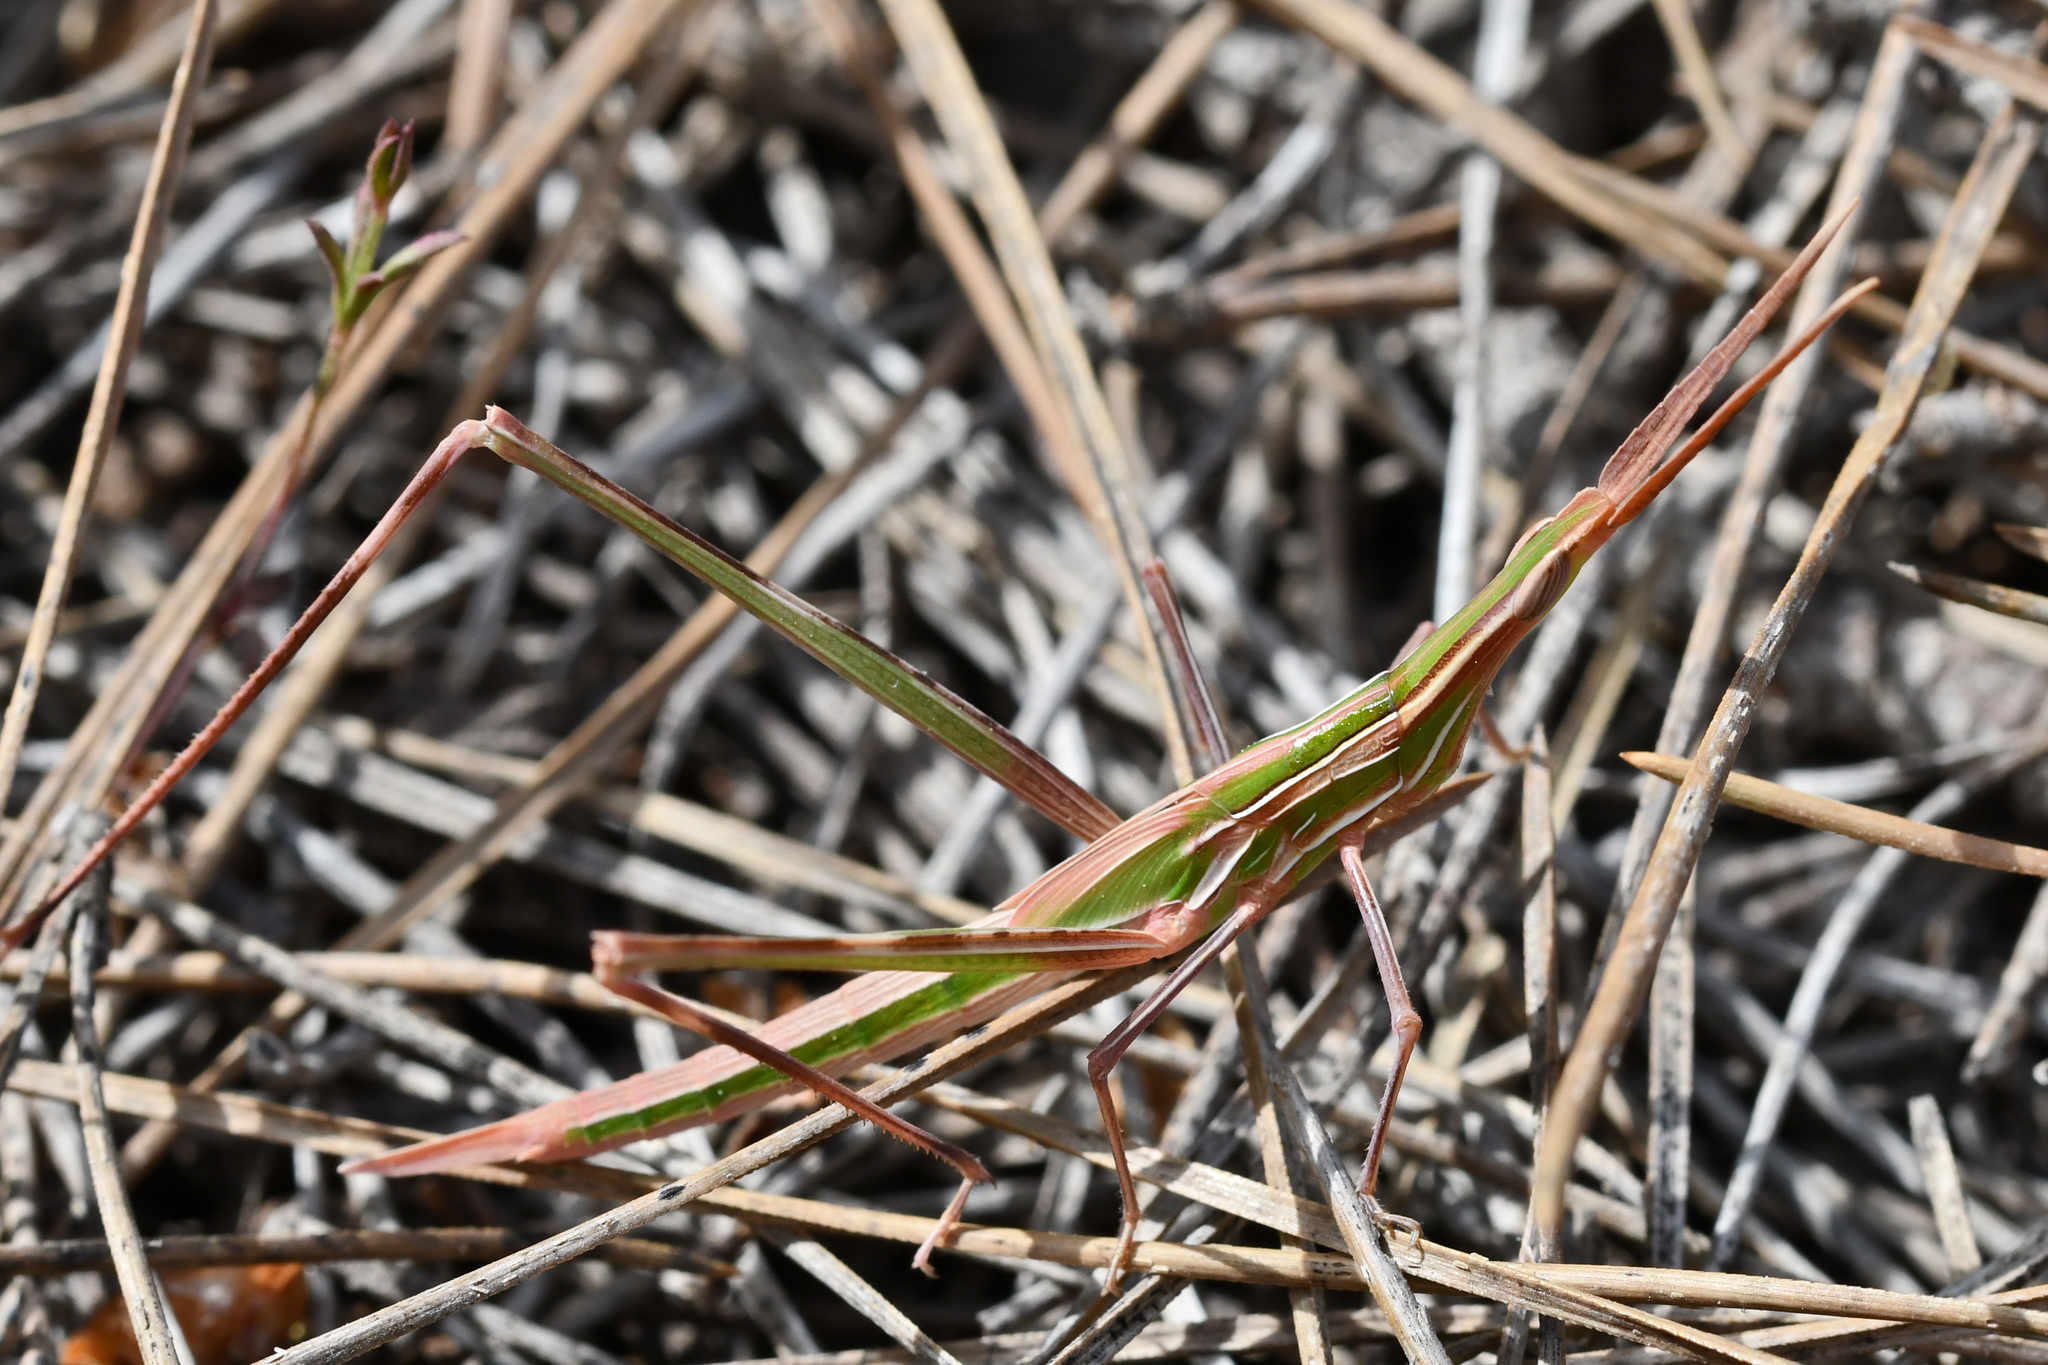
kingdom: Animalia
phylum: Arthropoda
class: Insecta
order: Orthoptera
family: Acrididae
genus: Acrida
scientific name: Acrida ungarica
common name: Common cone-headed grasshopper
